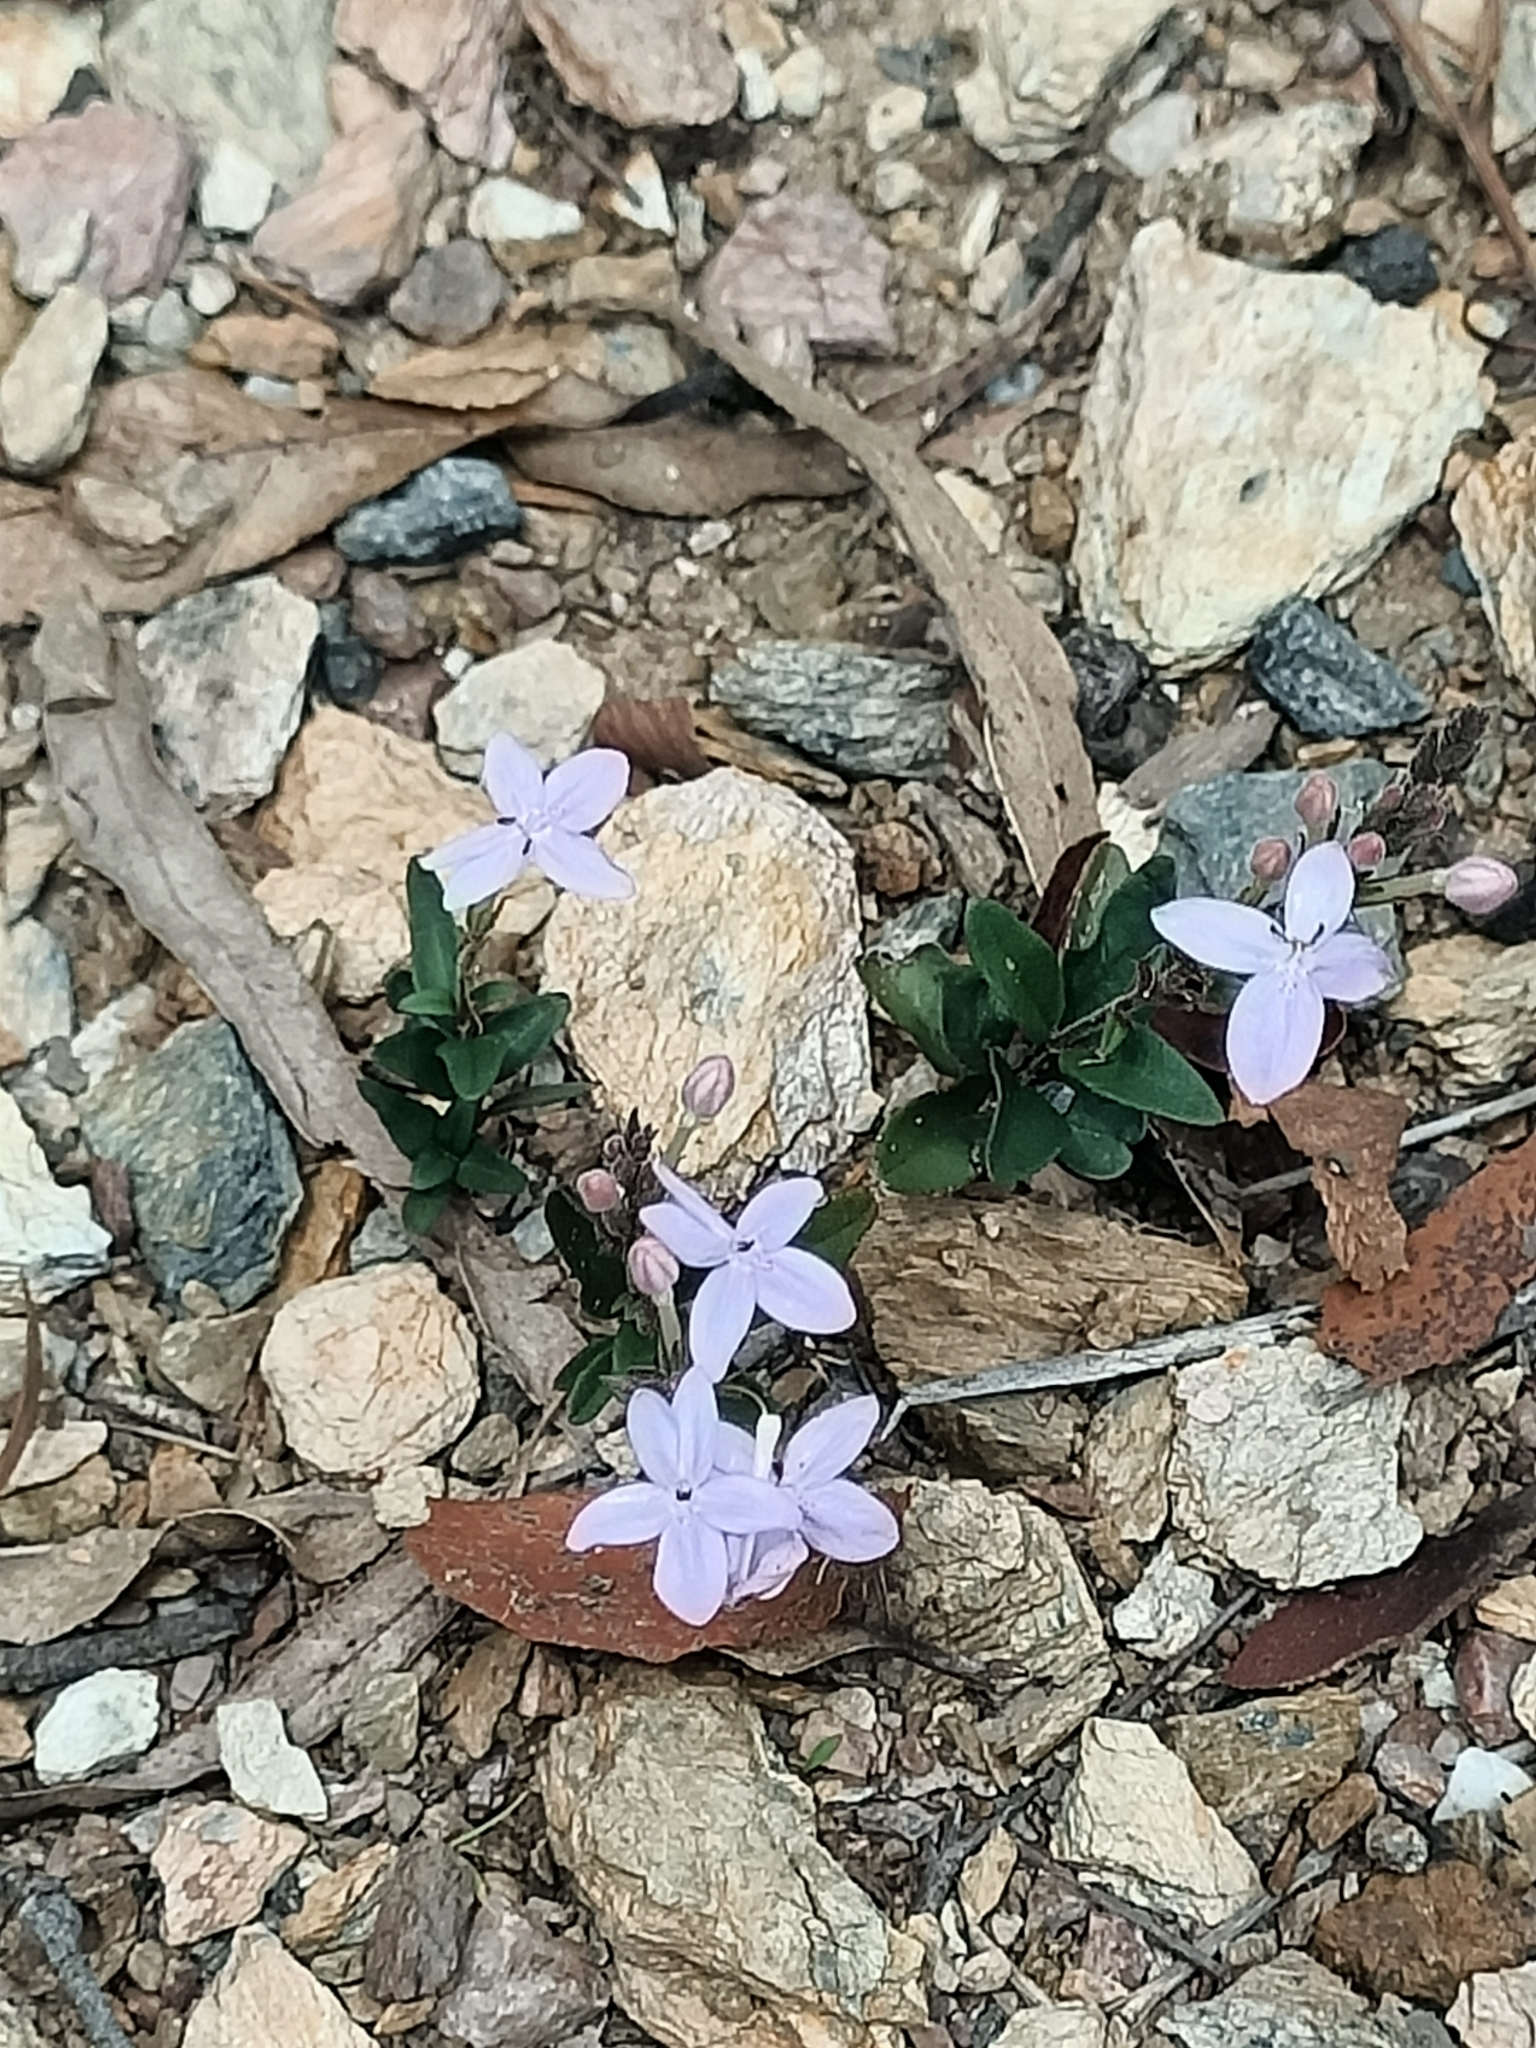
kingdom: Plantae
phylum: Tracheophyta
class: Magnoliopsida
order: Lamiales
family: Acanthaceae
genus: Pseuderanthemum
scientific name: Pseuderanthemum variabile
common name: Night and afternoon
